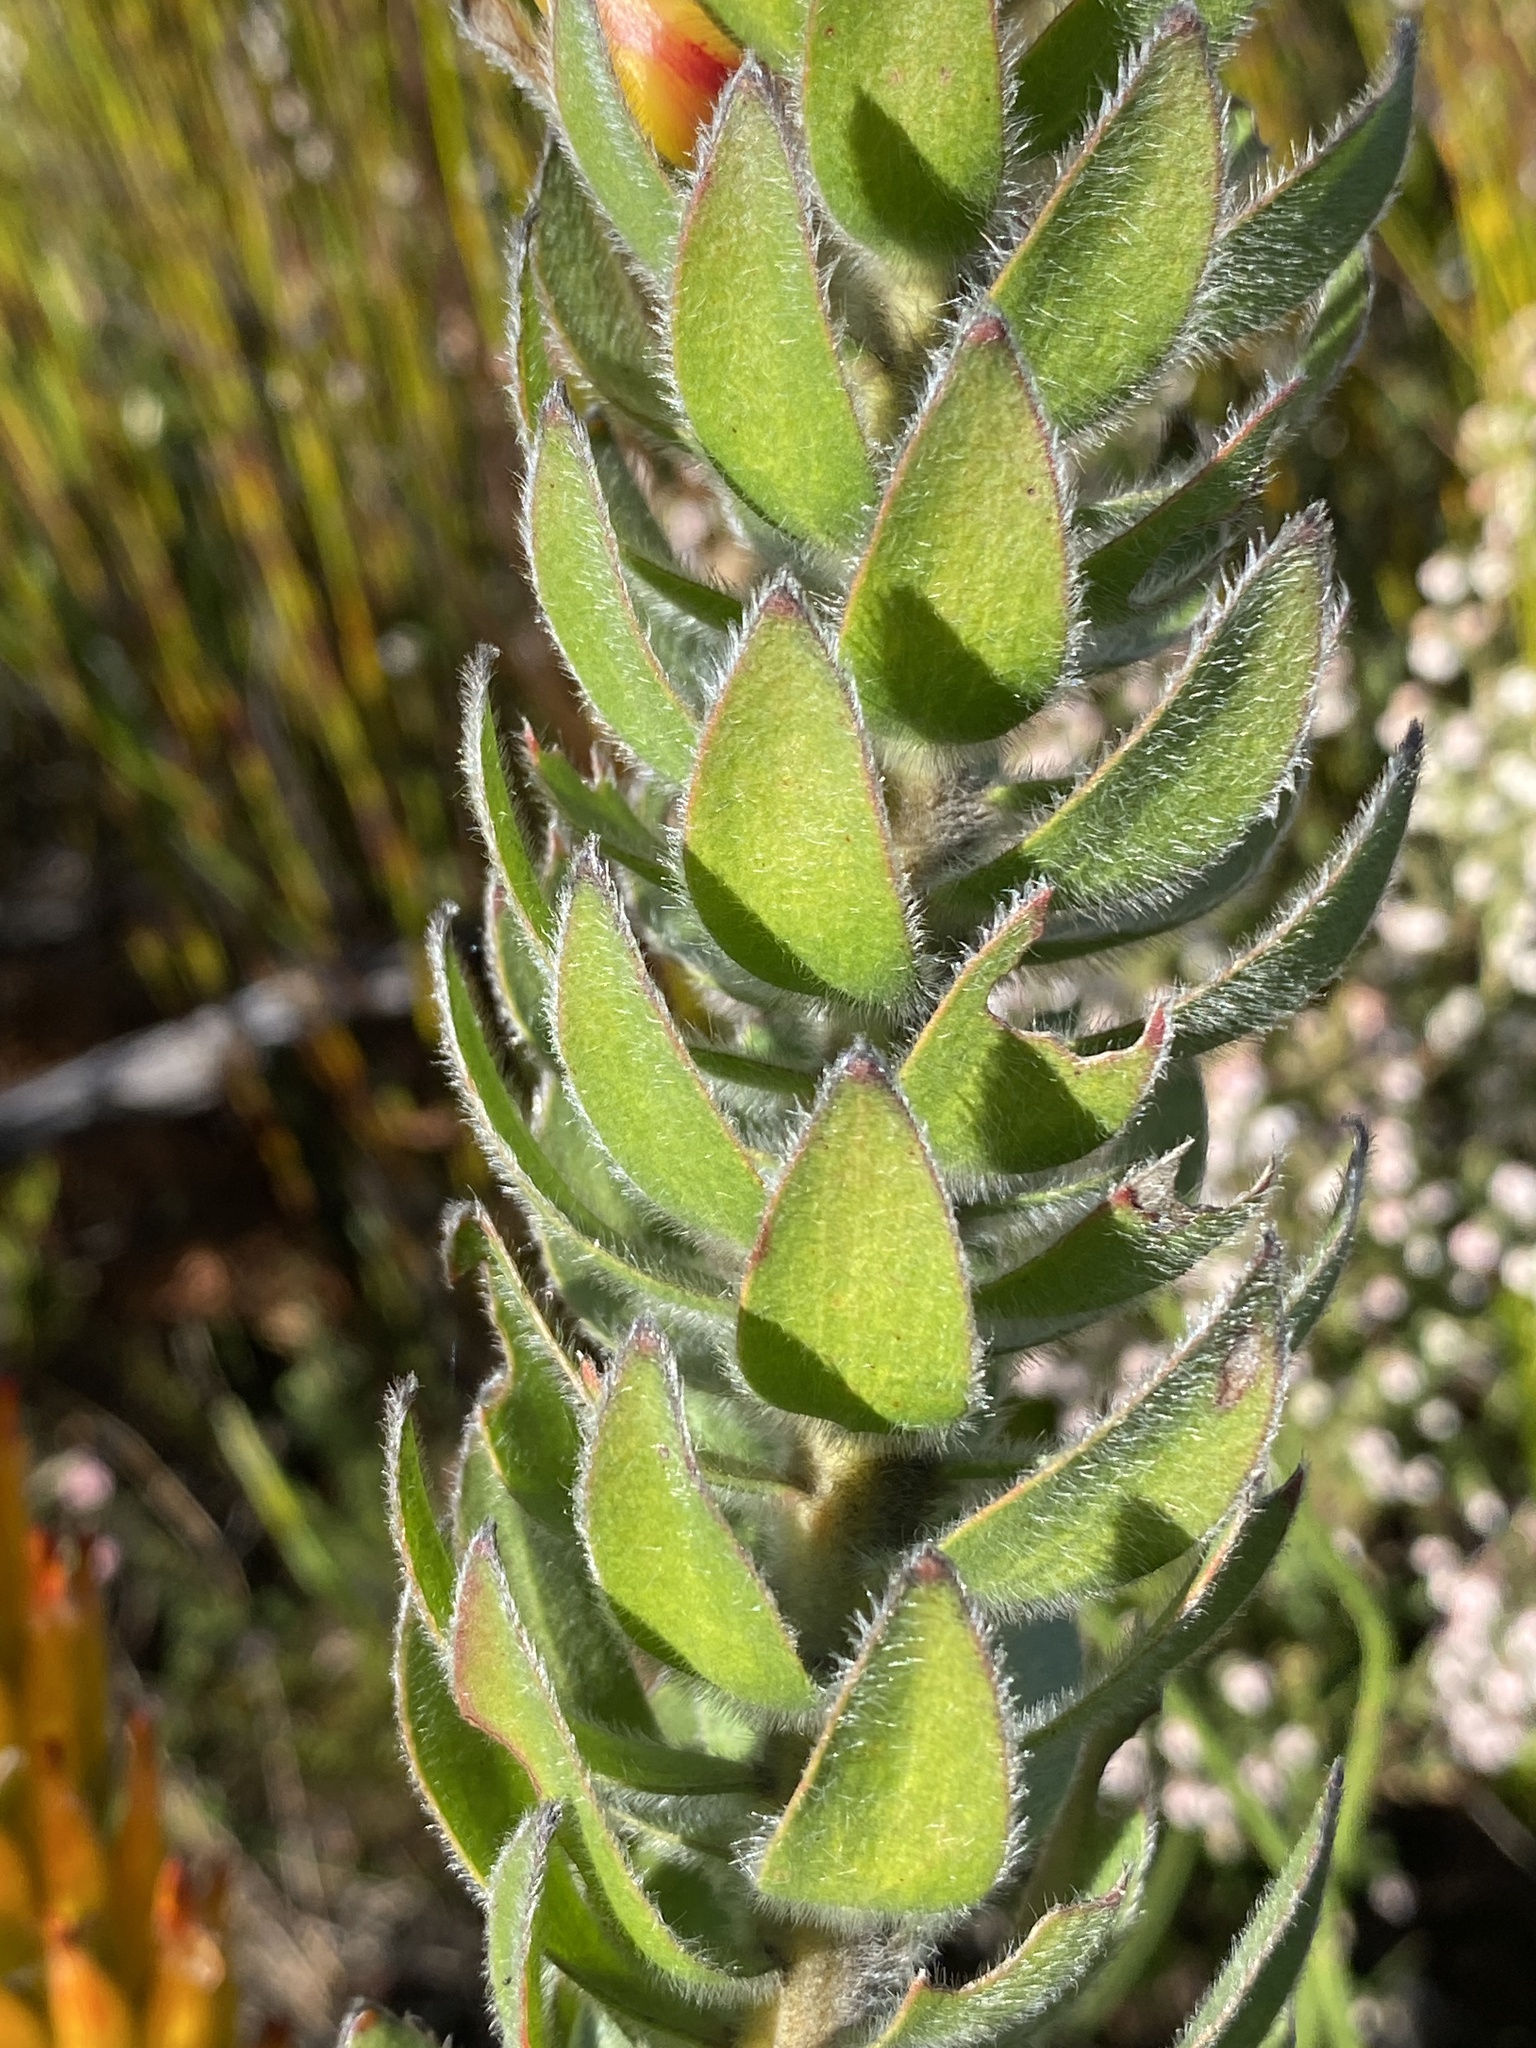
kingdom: Plantae
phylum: Tracheophyta
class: Magnoliopsida
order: Proteales
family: Proteaceae
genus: Mimetes
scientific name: Mimetes pauciflora
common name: Three-flowered pagoda
